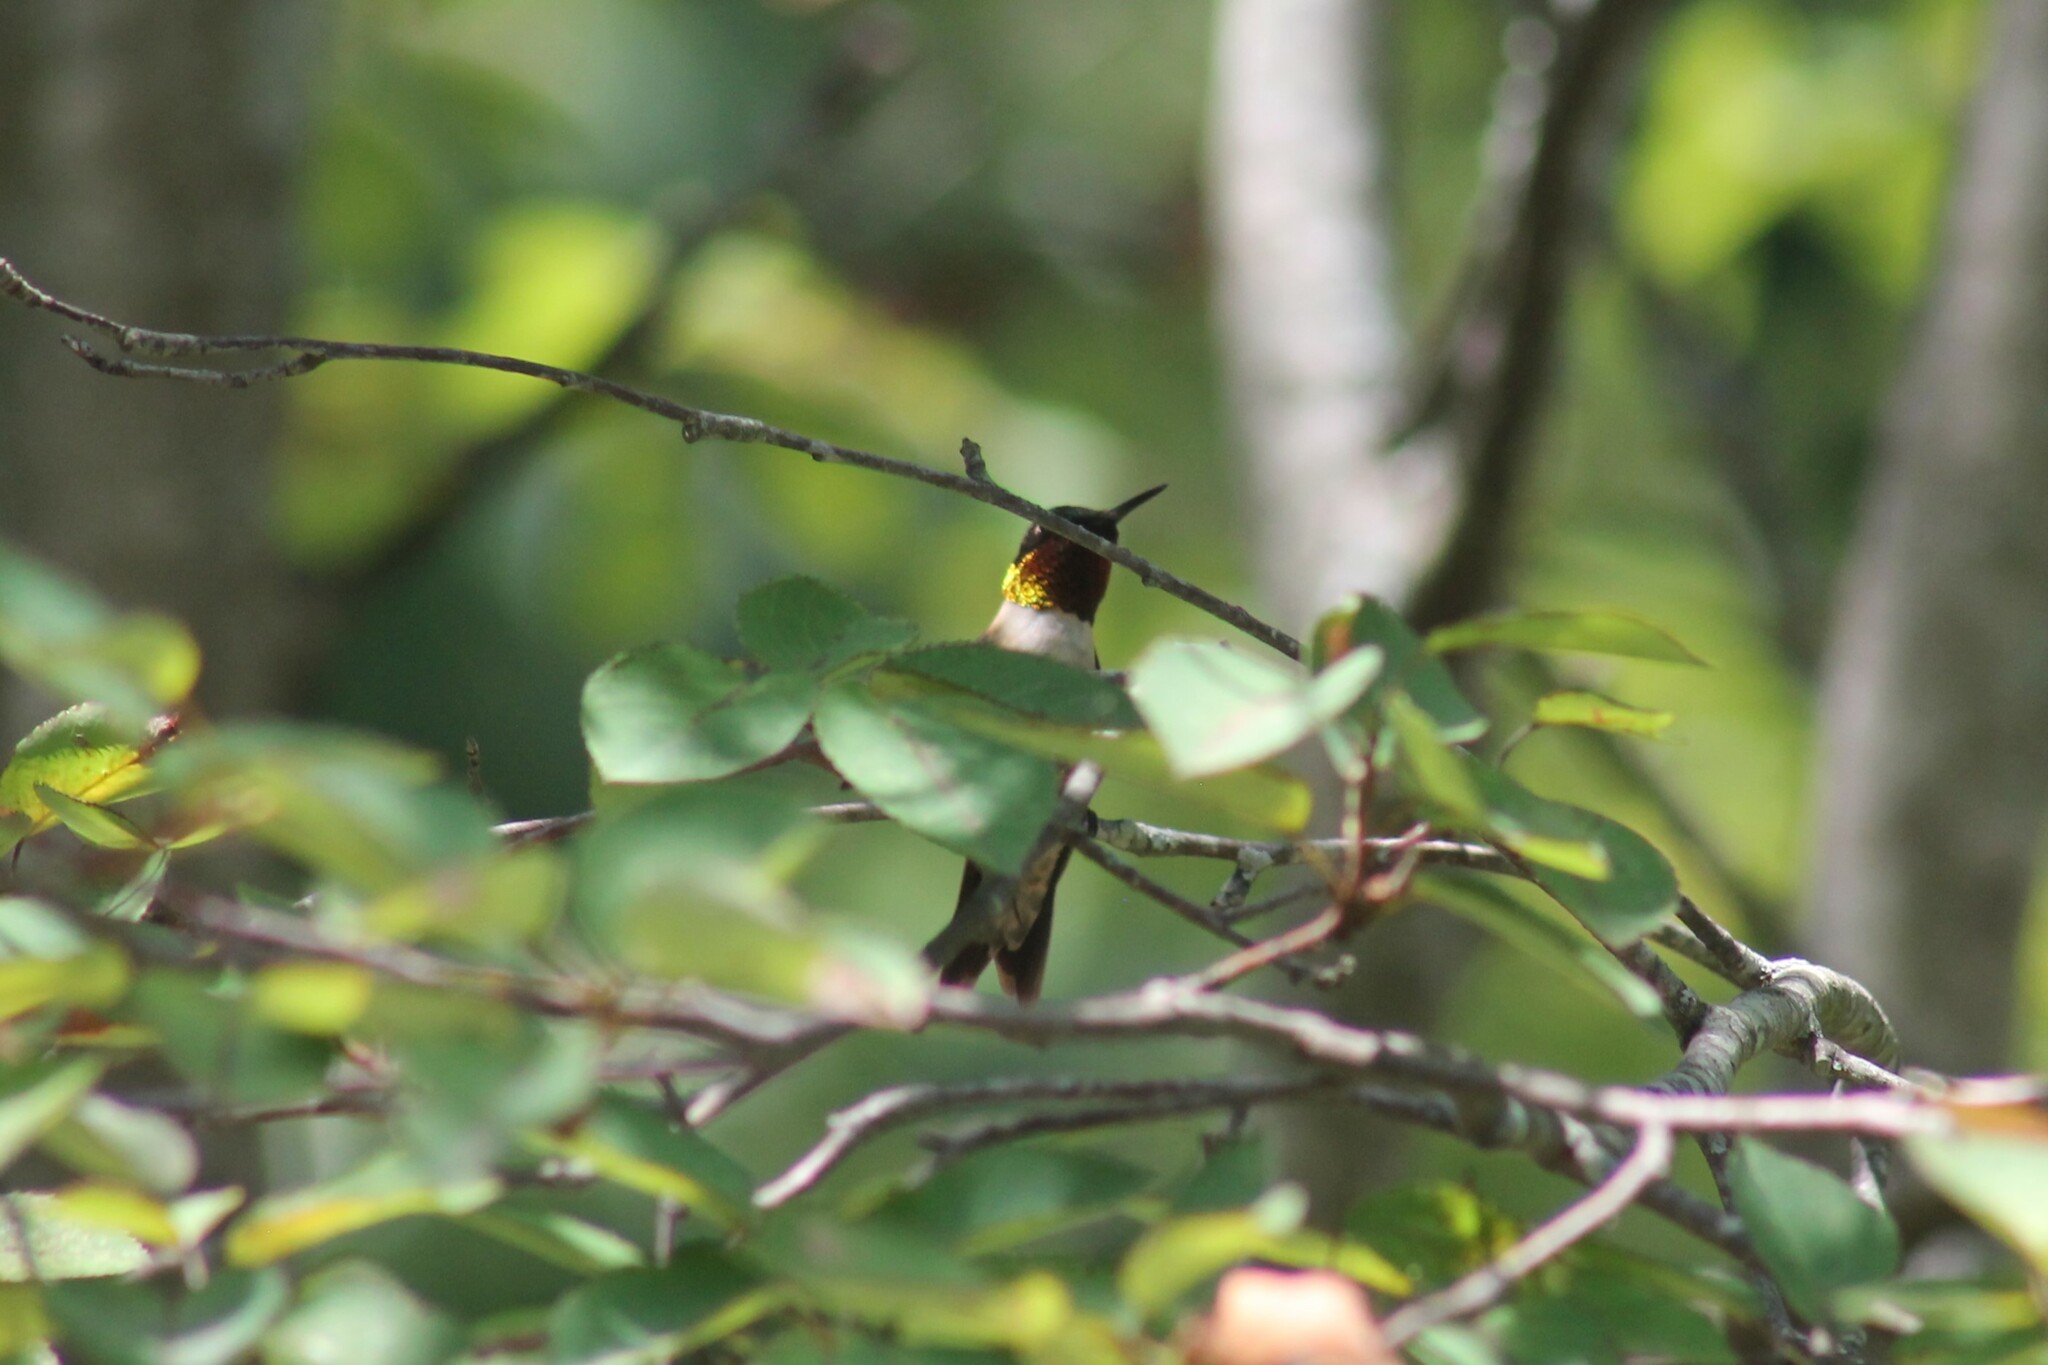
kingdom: Animalia
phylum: Chordata
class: Aves
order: Apodiformes
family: Trochilidae
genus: Archilochus
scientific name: Archilochus colubris
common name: Ruby-throated hummingbird
